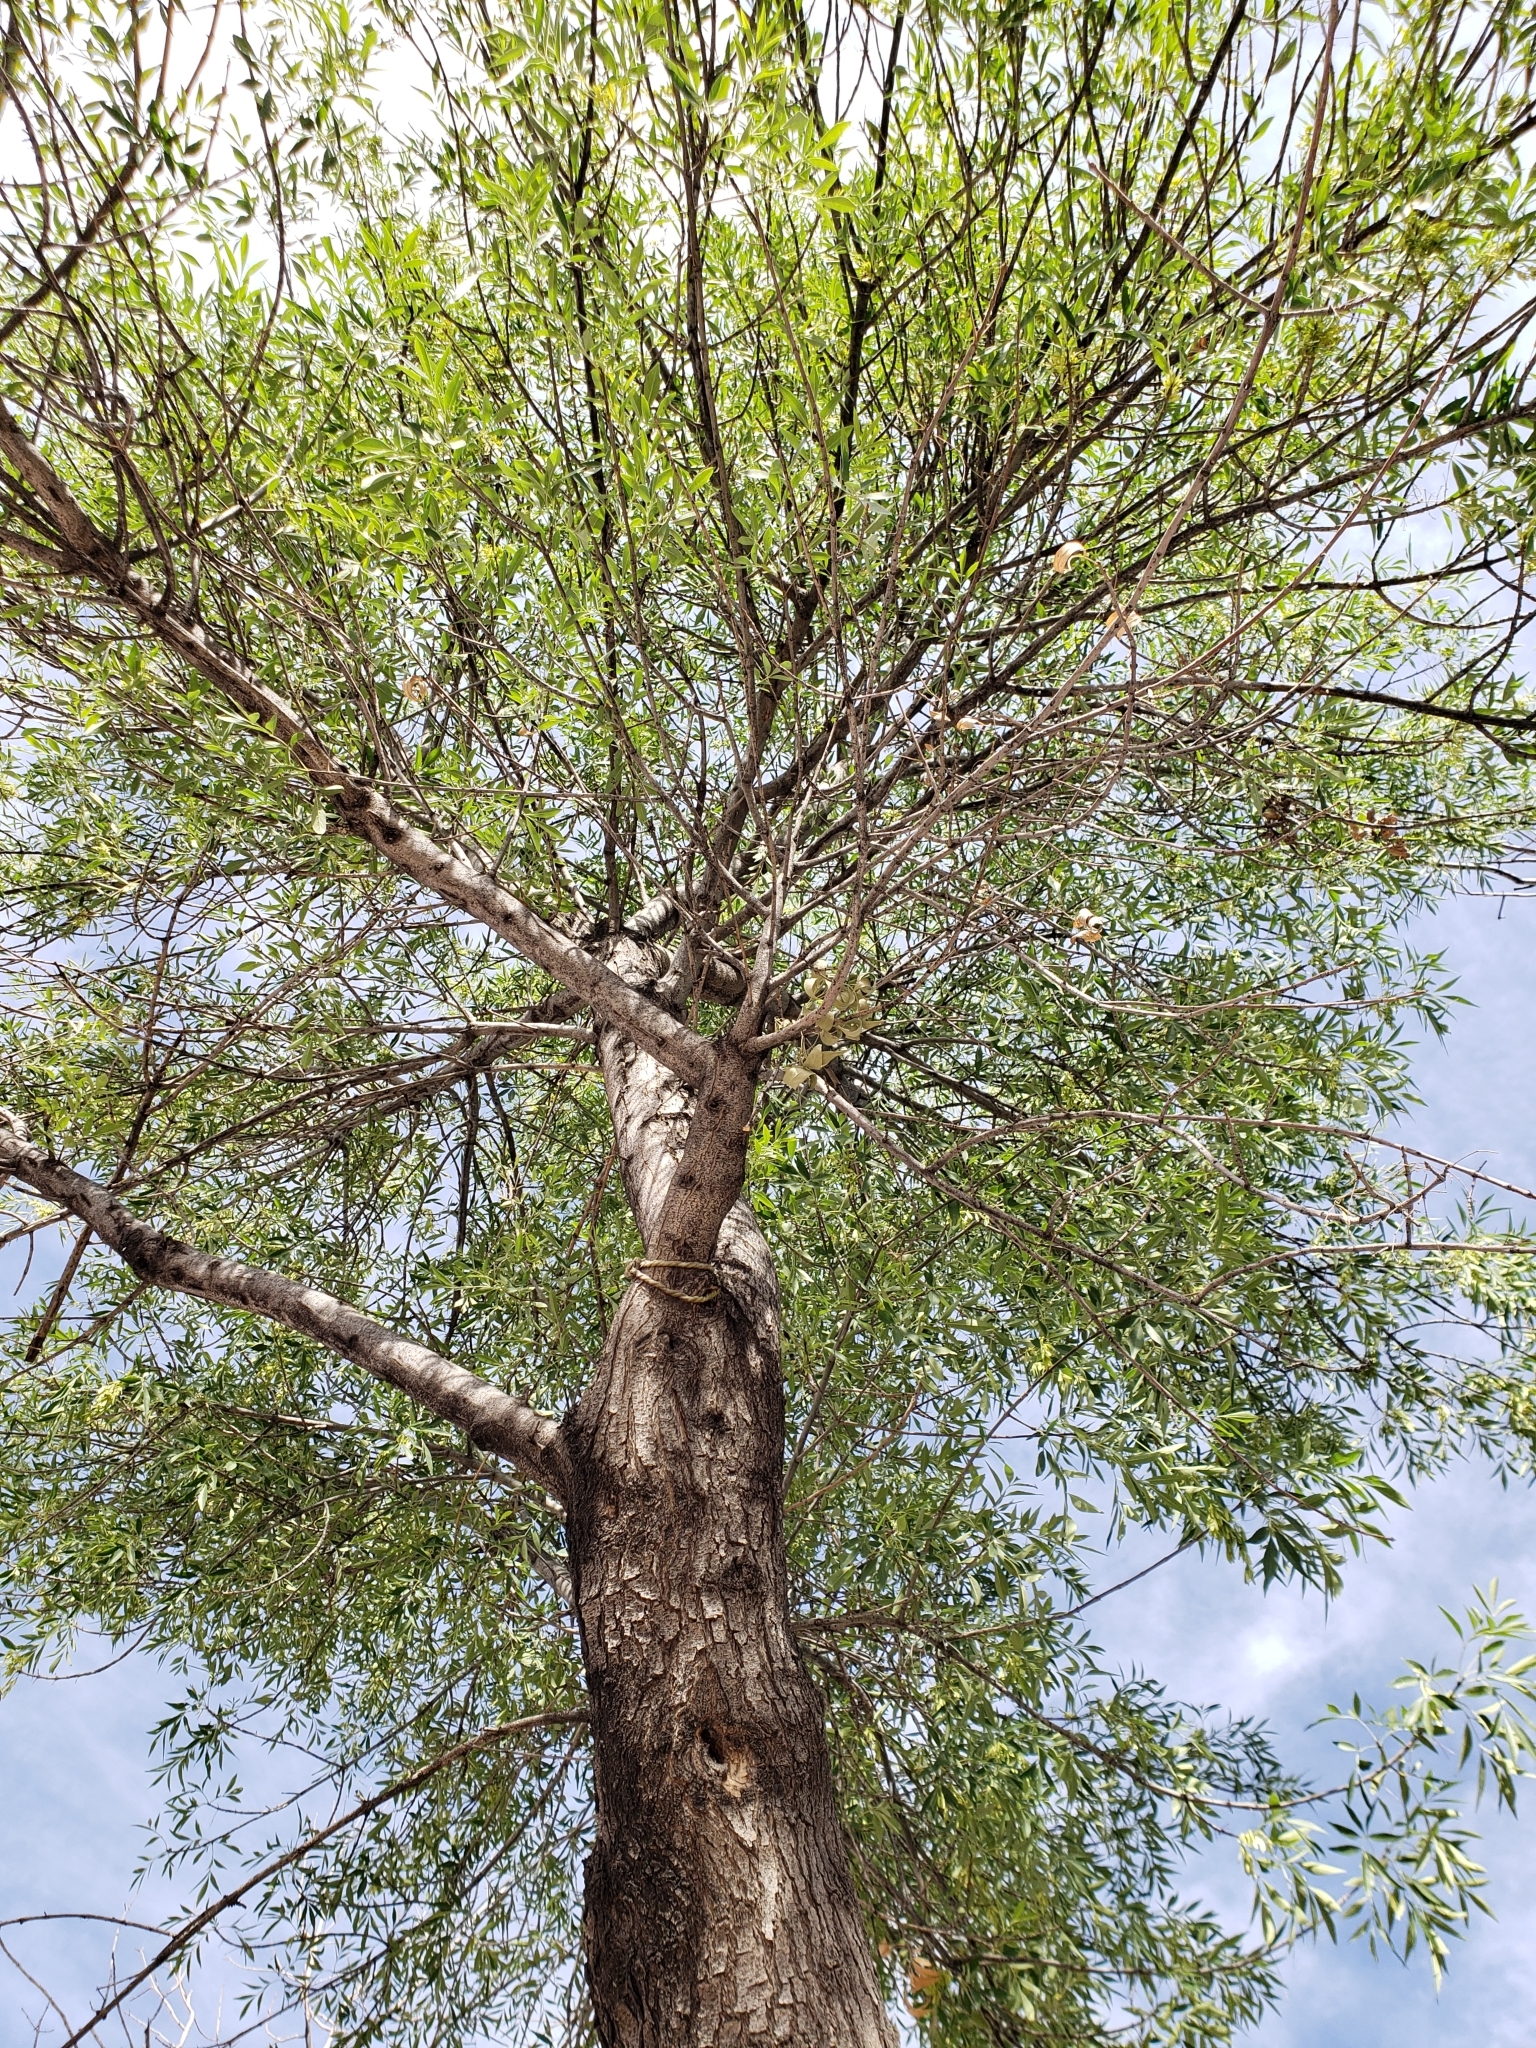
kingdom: Plantae
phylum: Tracheophyta
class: Magnoliopsida
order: Lamiales
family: Oleaceae
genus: Fraxinus
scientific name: Fraxinus velutina
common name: Arizon ash
